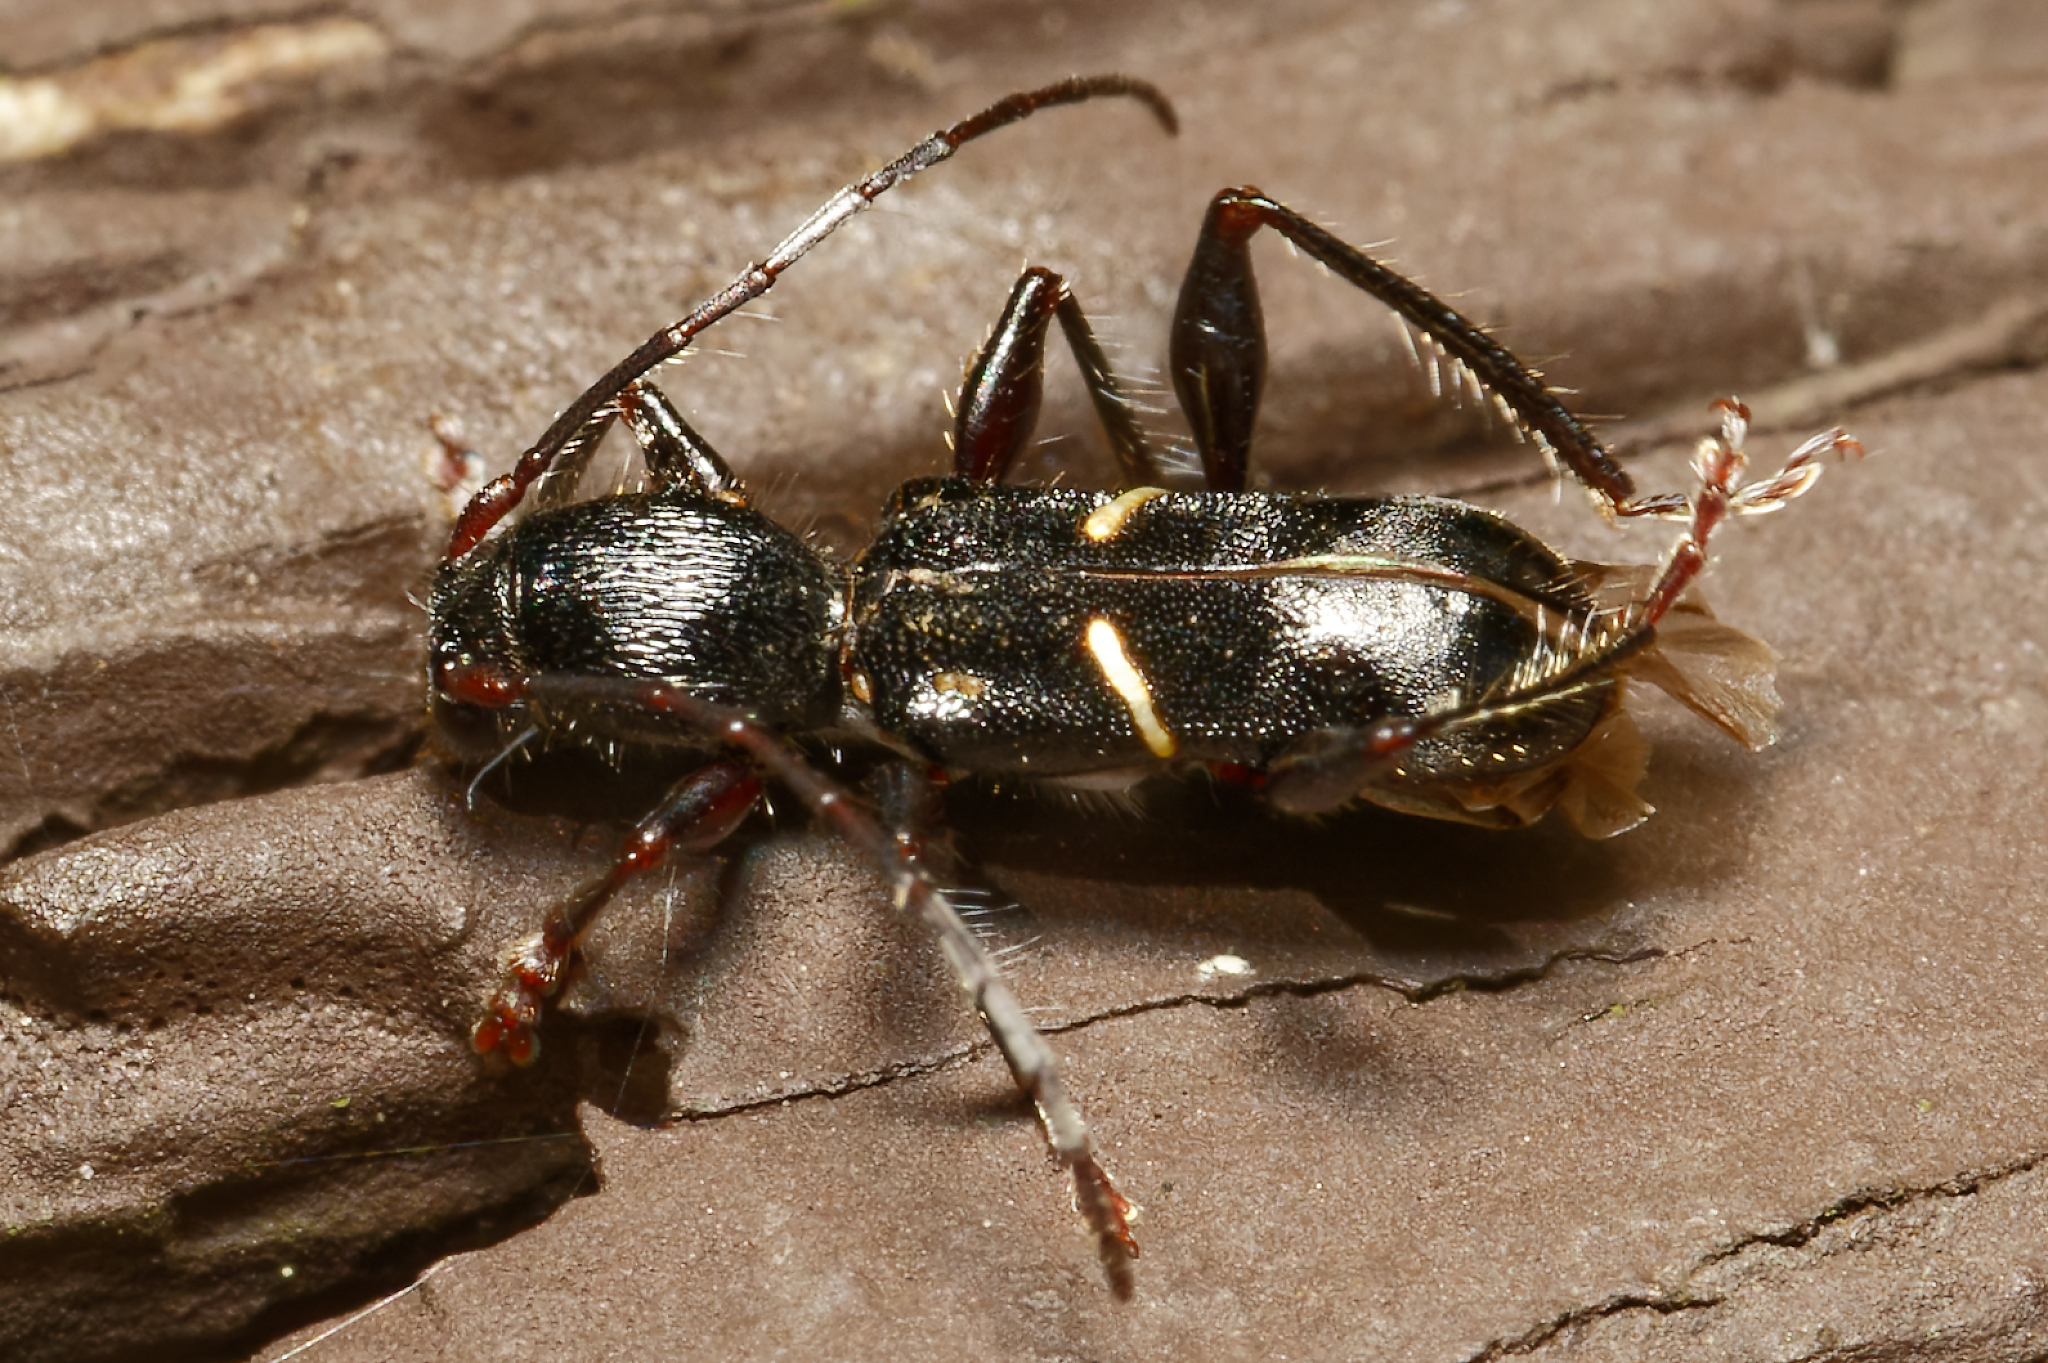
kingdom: Animalia
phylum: Arthropoda
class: Insecta
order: Coleoptera
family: Cerambycidae
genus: Euderces
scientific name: Euderces picipes
